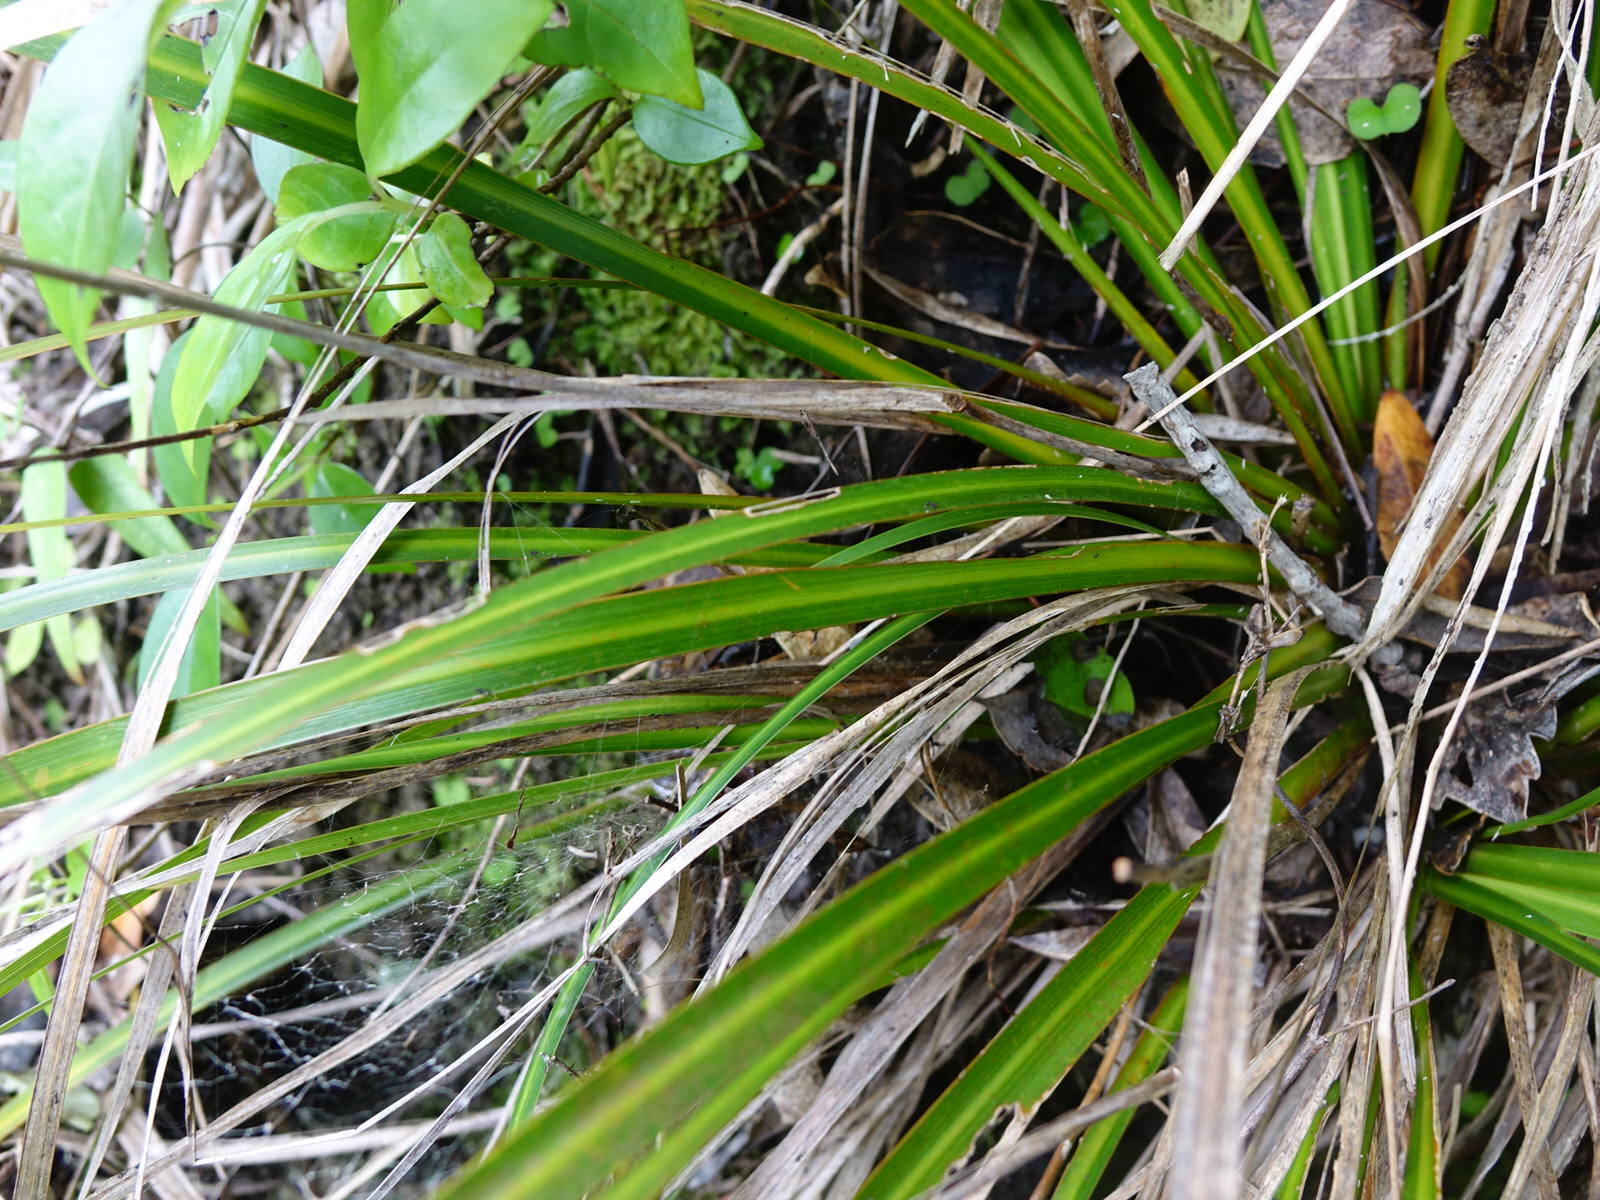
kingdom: Plantae
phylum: Tracheophyta
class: Liliopsida
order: Asparagales
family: Iridaceae
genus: Libertia
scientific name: Libertia grandiflora
